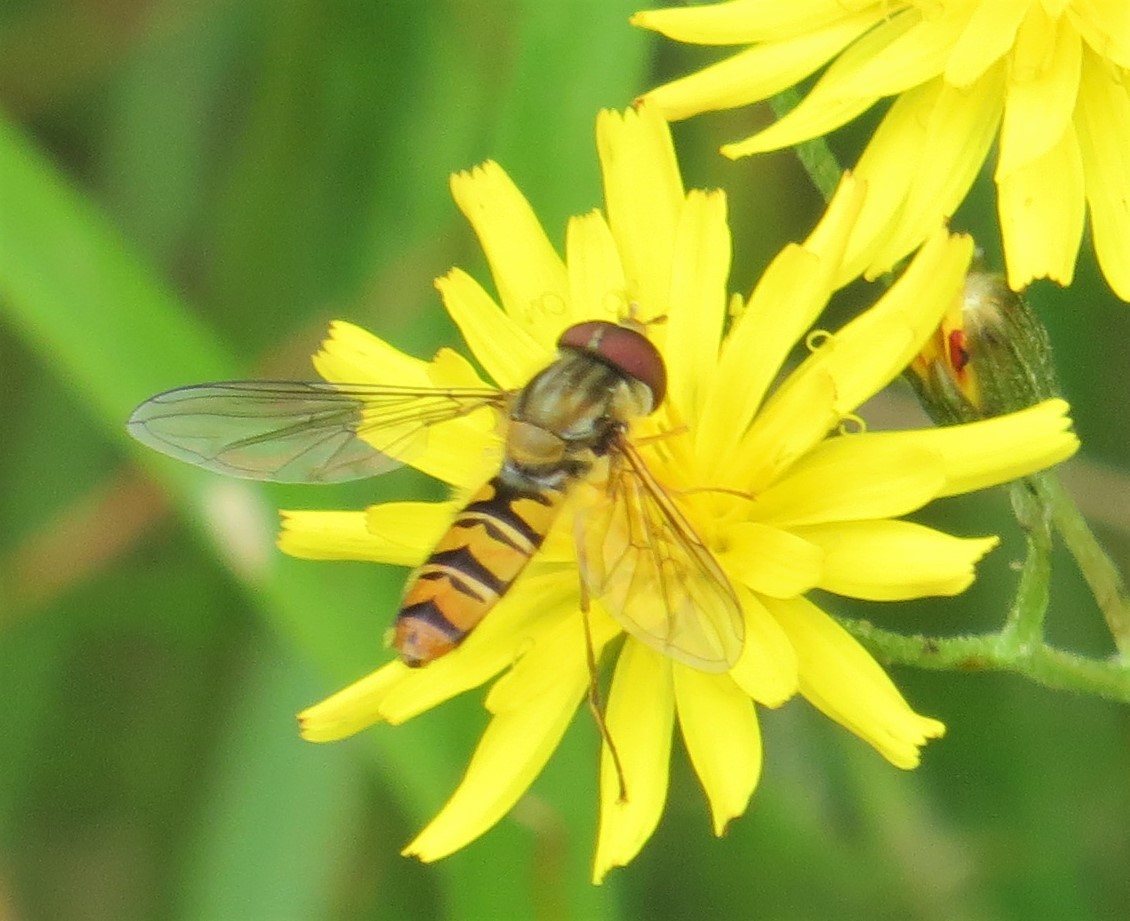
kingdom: Animalia
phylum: Arthropoda
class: Insecta
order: Diptera
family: Syrphidae
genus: Episyrphus
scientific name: Episyrphus balteatus
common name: Marmalade hoverfly
